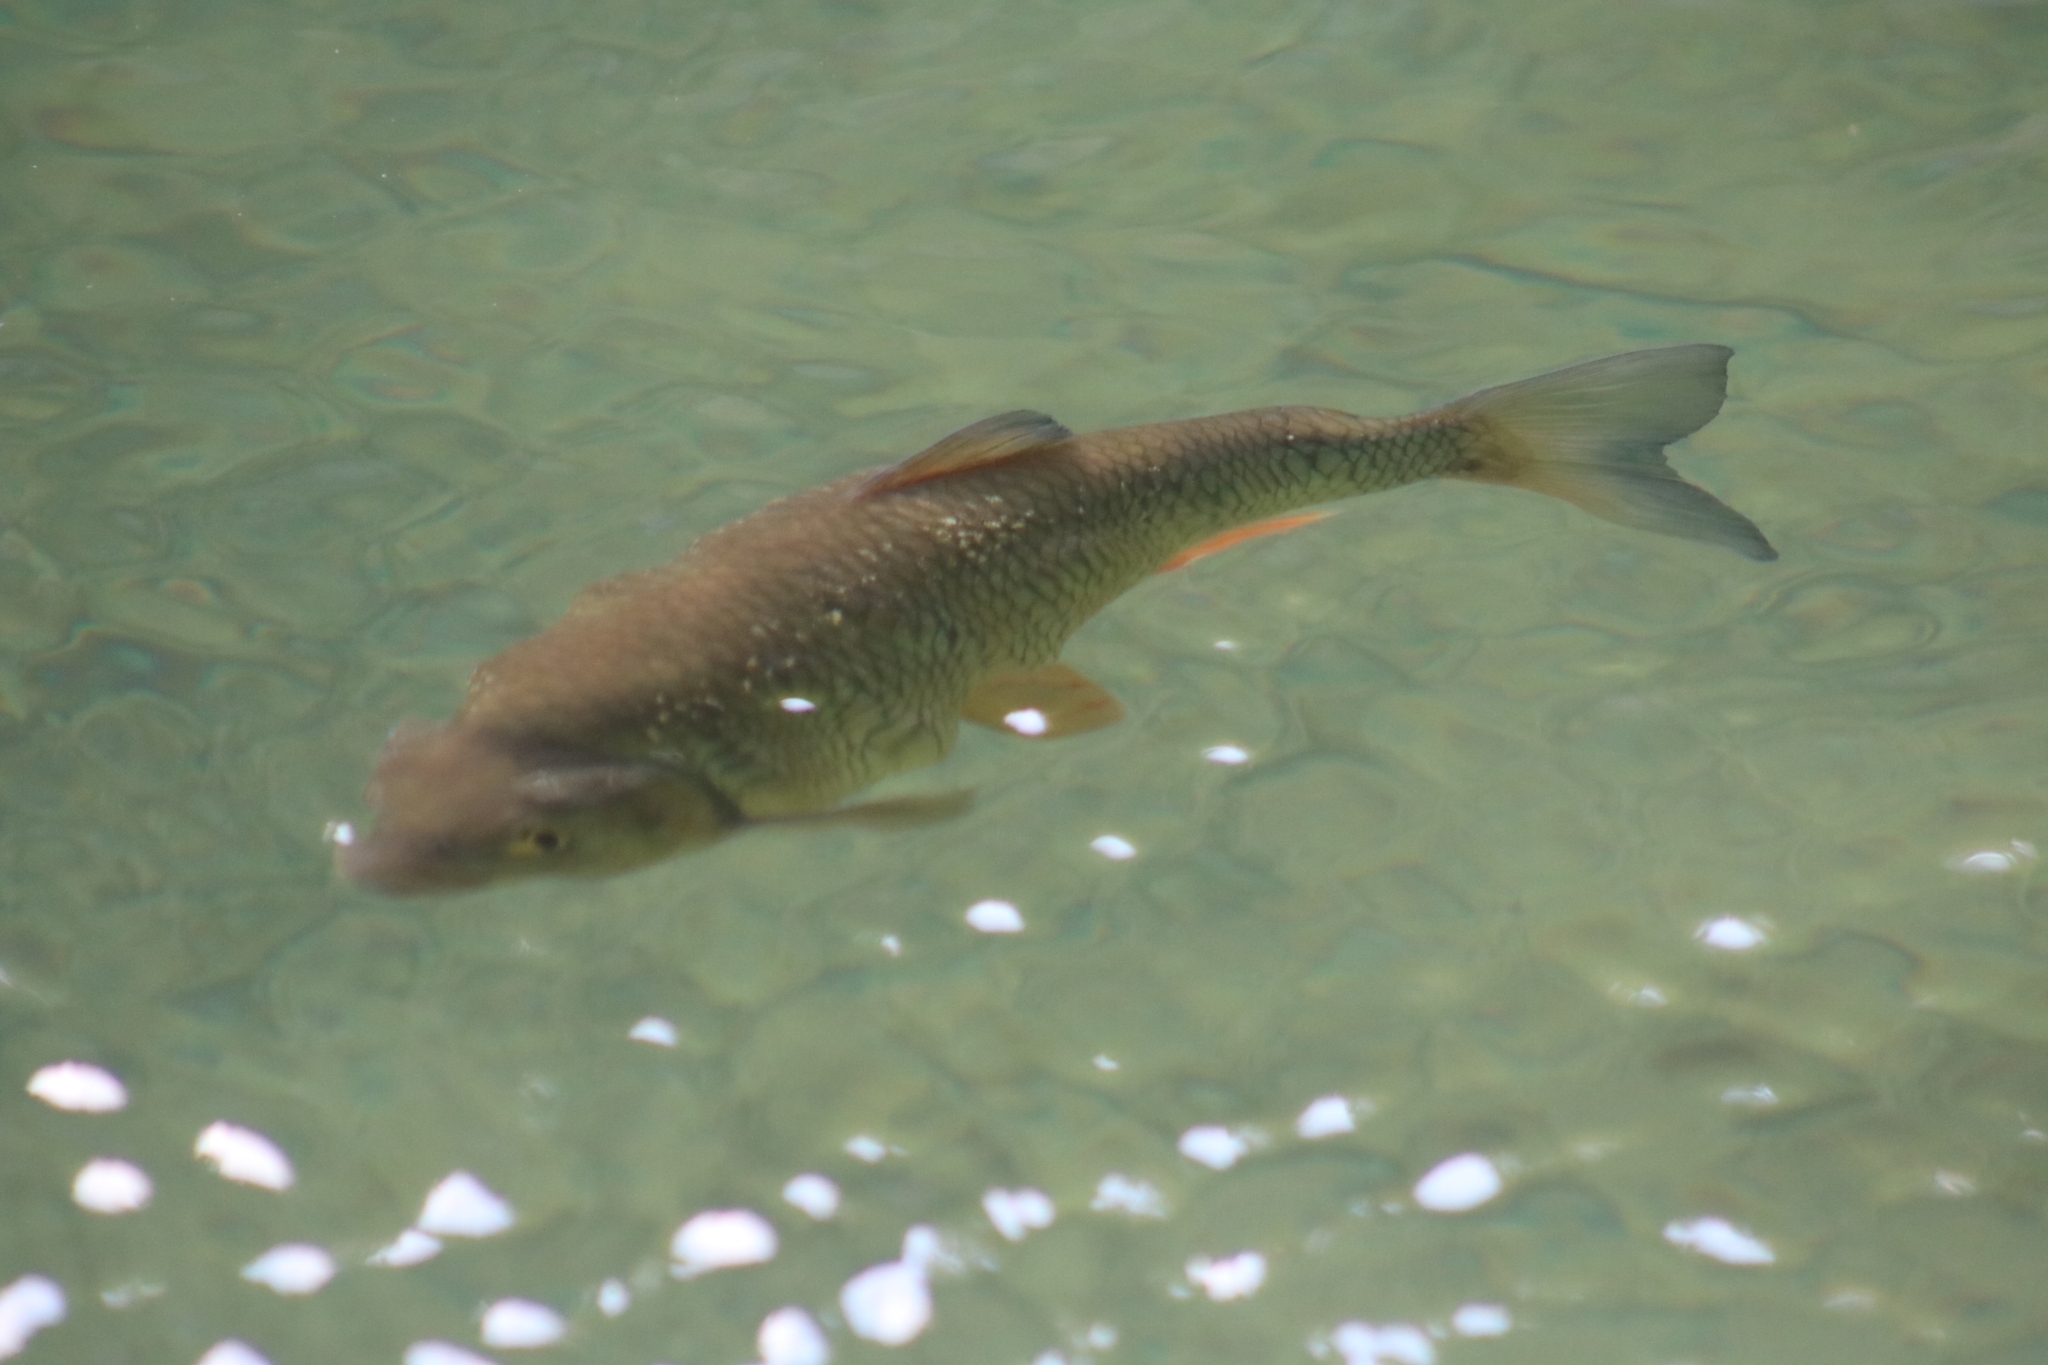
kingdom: Animalia
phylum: Chordata
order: Cypriniformes
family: Cyprinidae
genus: Squalius
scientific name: Squalius cephalus
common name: Chub
